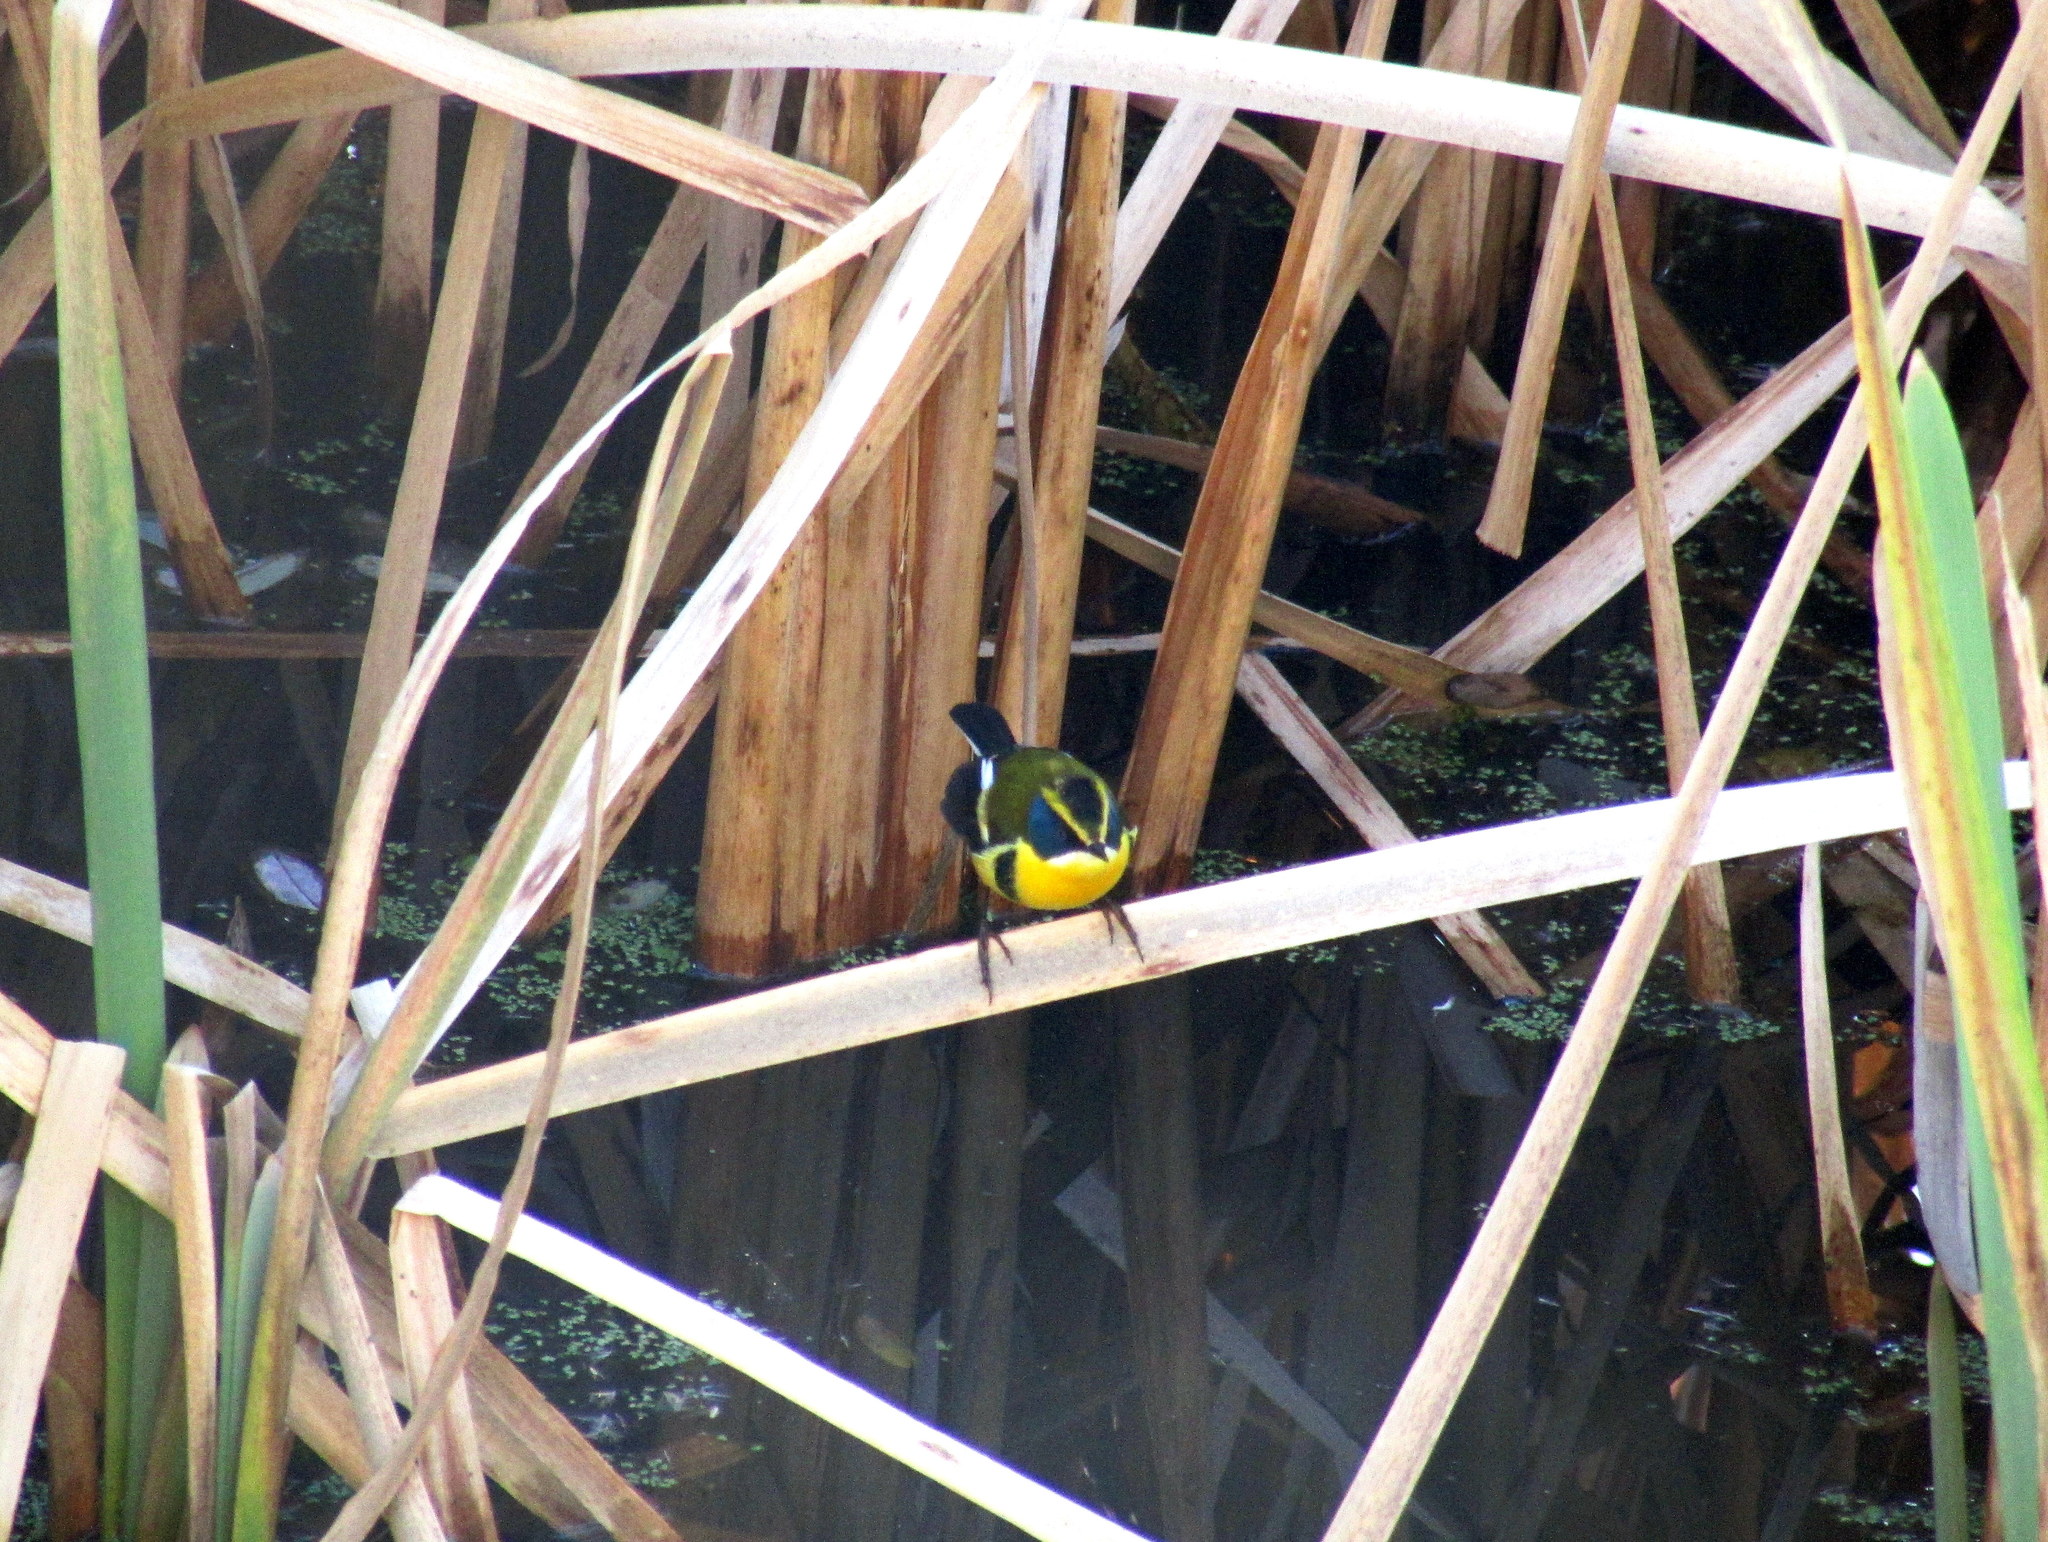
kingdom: Animalia
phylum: Chordata
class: Aves
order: Passeriformes
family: Tyrannidae
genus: Tachuris
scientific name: Tachuris rubrigastra
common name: Many-colored rush tyrant
